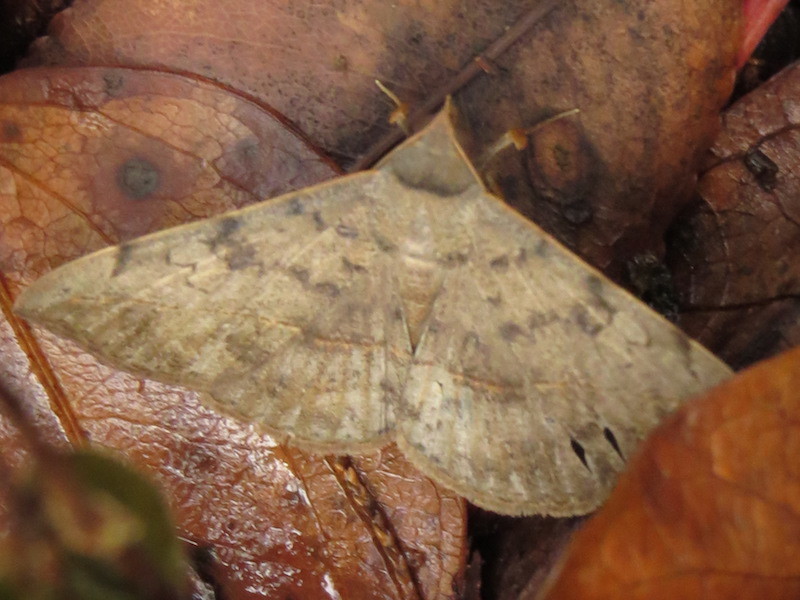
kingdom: Animalia
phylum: Arthropoda
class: Insecta
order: Lepidoptera
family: Erebidae
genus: Anticarsia
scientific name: Anticarsia gemmatalis
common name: Cutworm moth
